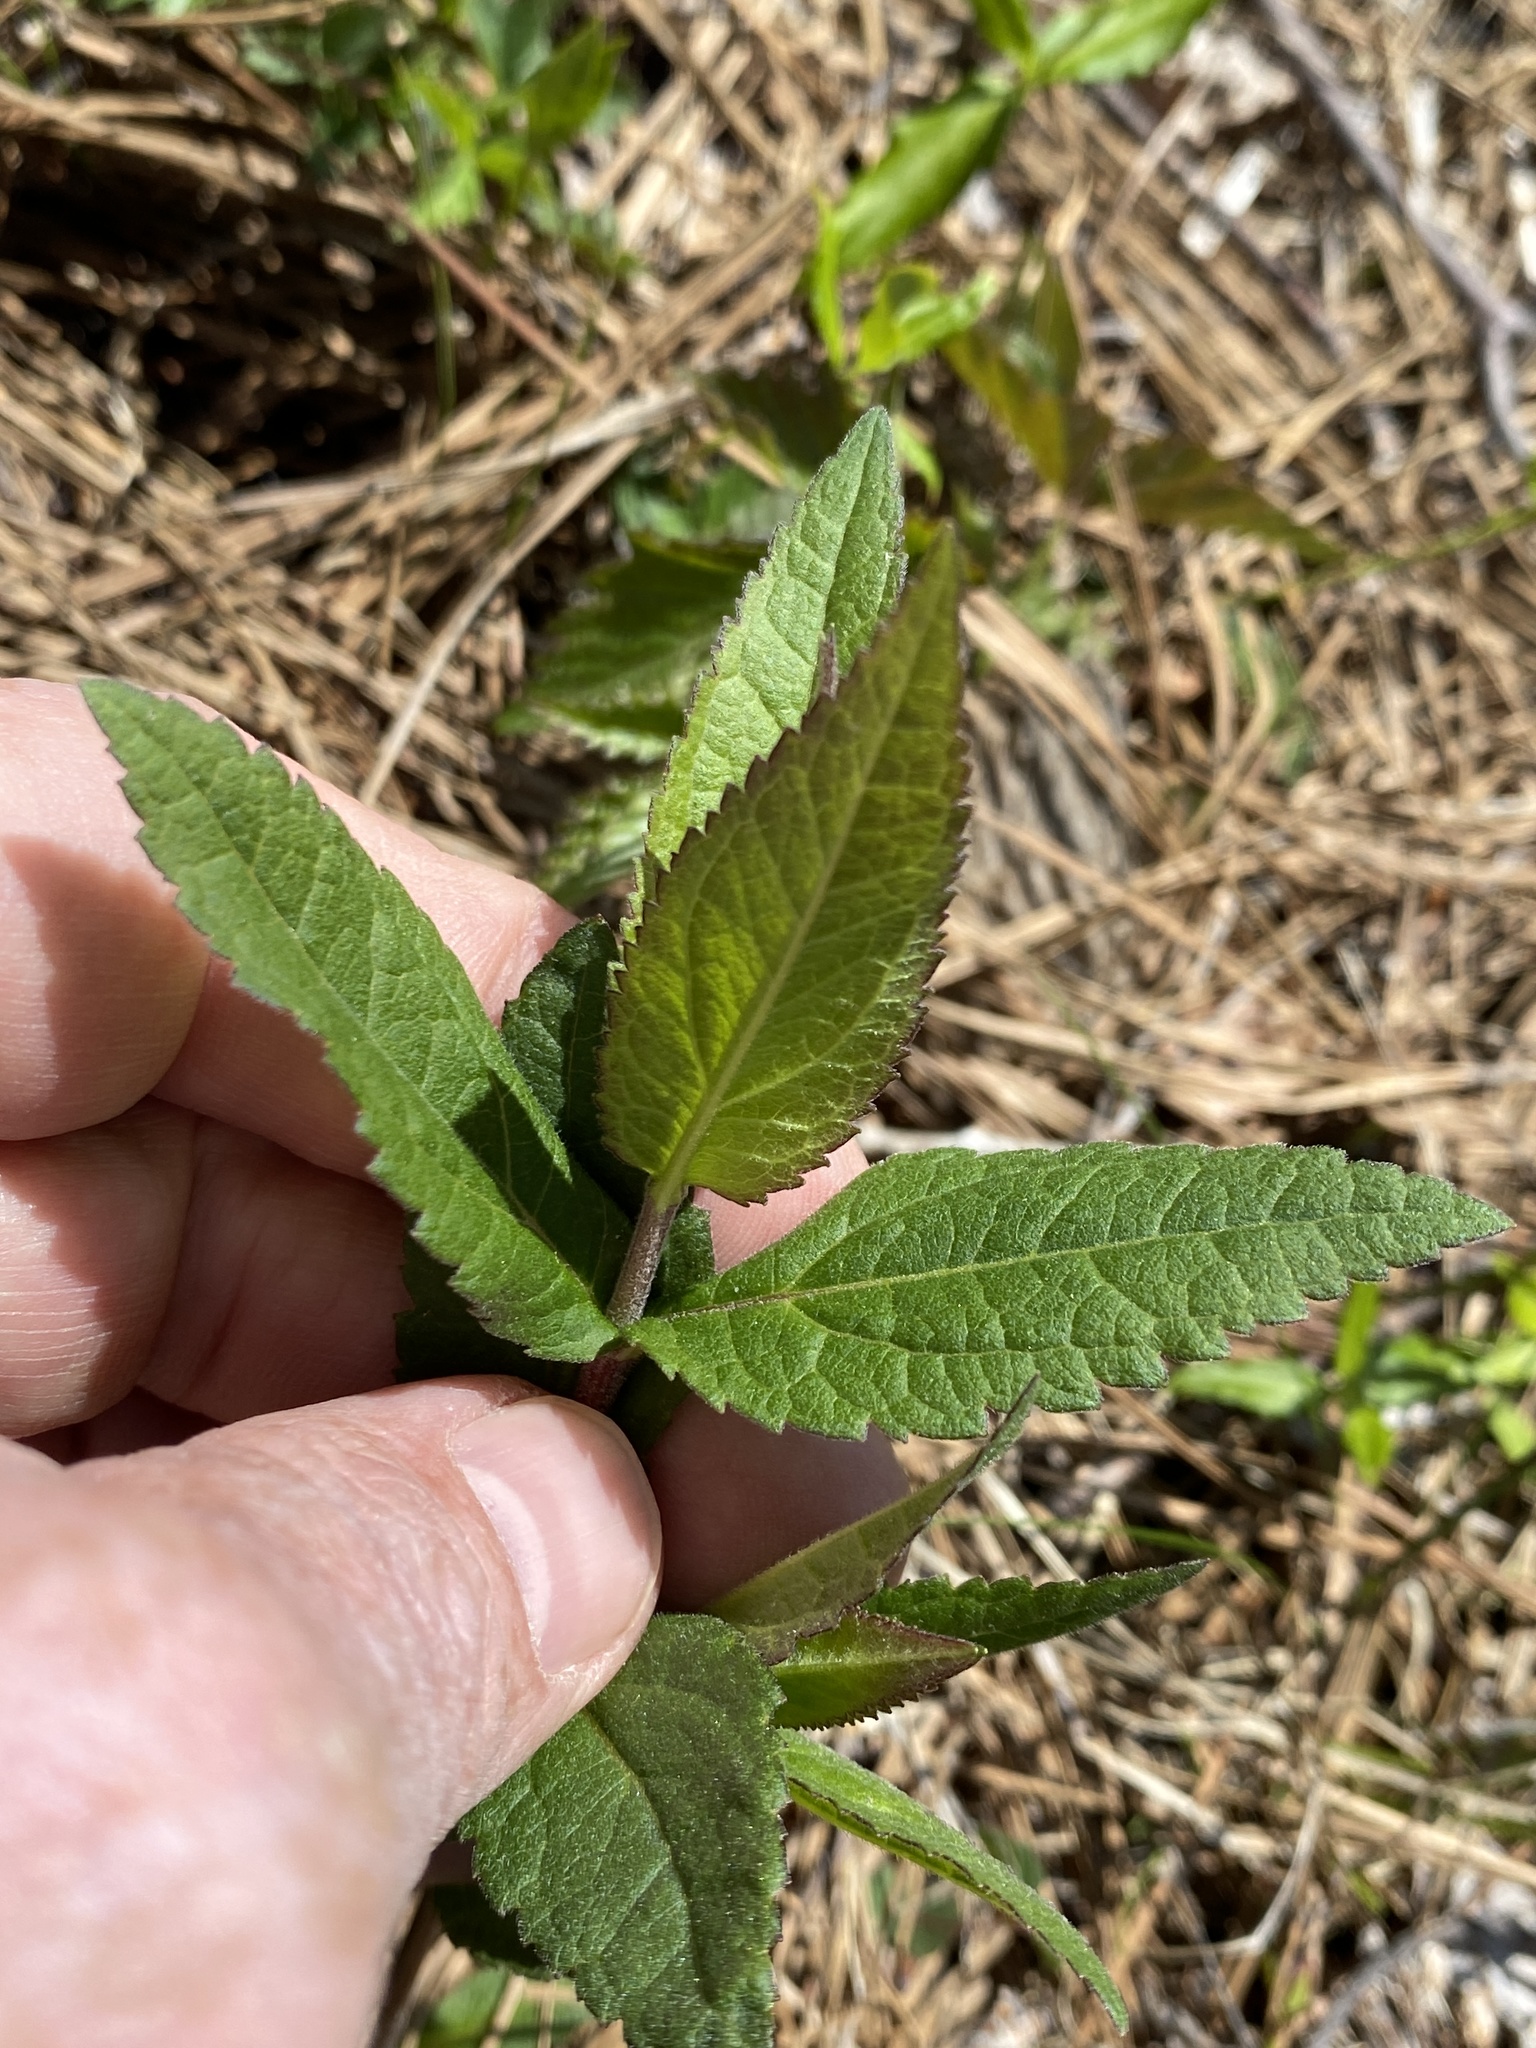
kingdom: Plantae
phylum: Tracheophyta
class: Magnoliopsida
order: Asterales
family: Asteraceae
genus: Eupatorium
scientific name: Eupatorium godfreyanum
